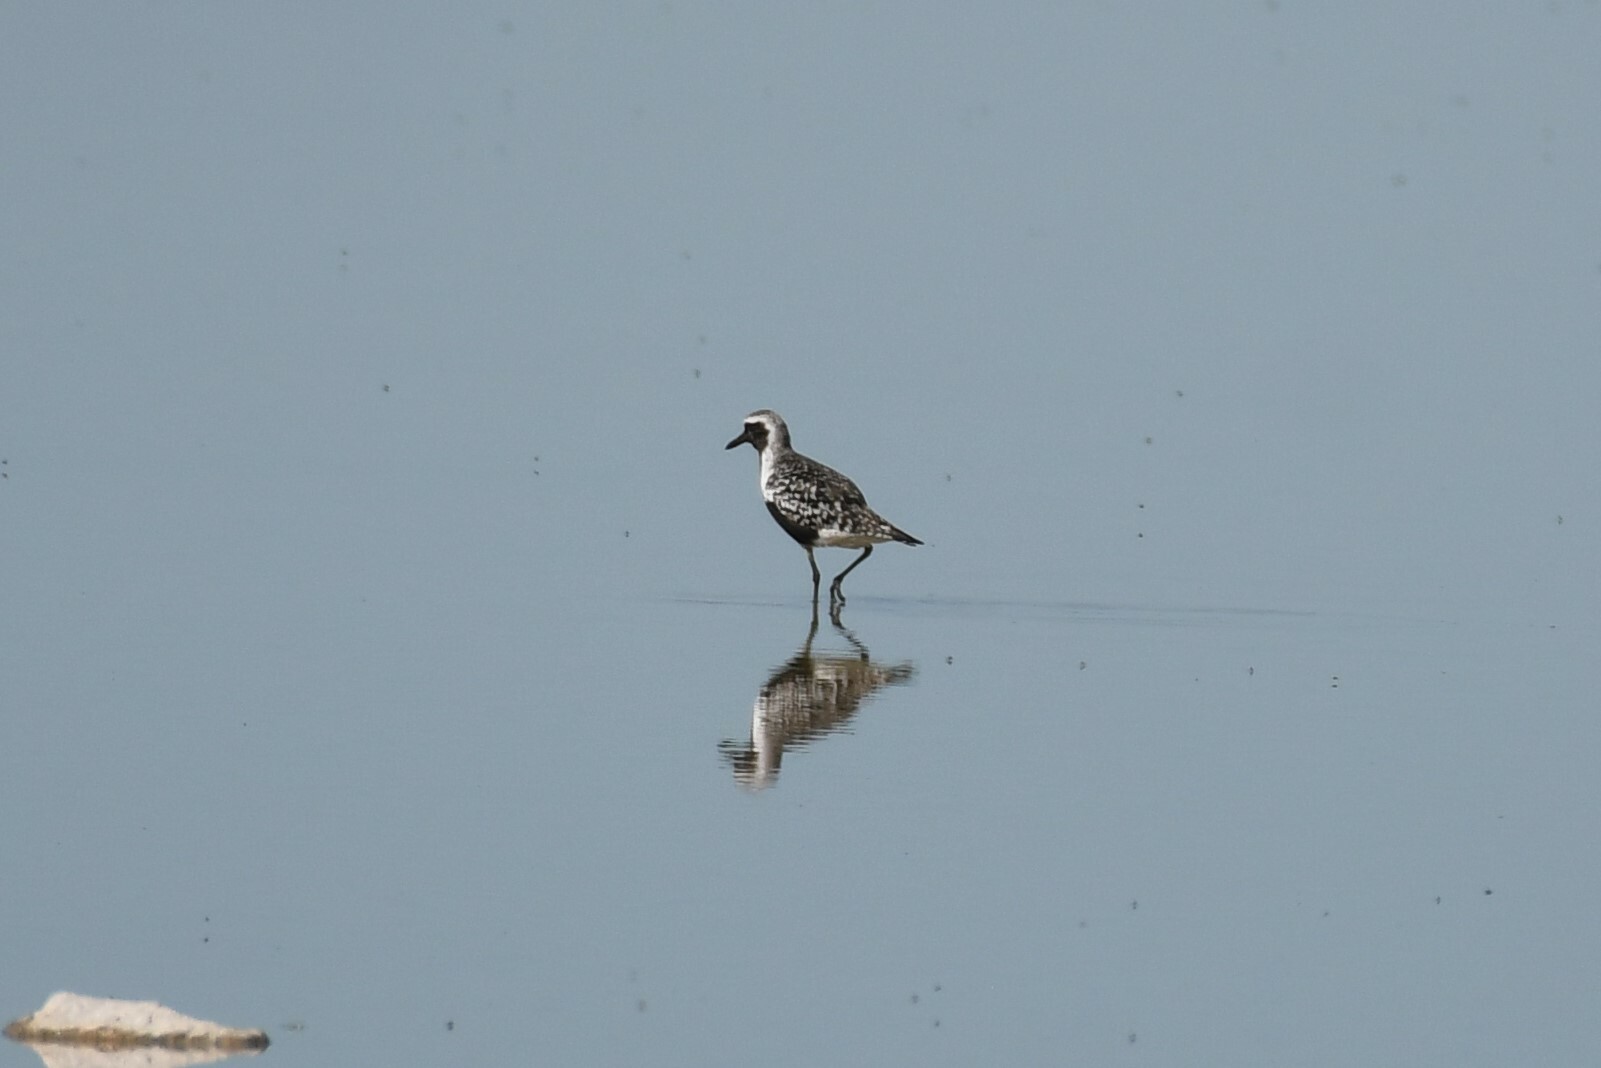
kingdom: Animalia
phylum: Chordata
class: Aves
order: Charadriiformes
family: Charadriidae
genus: Pluvialis
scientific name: Pluvialis squatarola
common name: Grey plover
